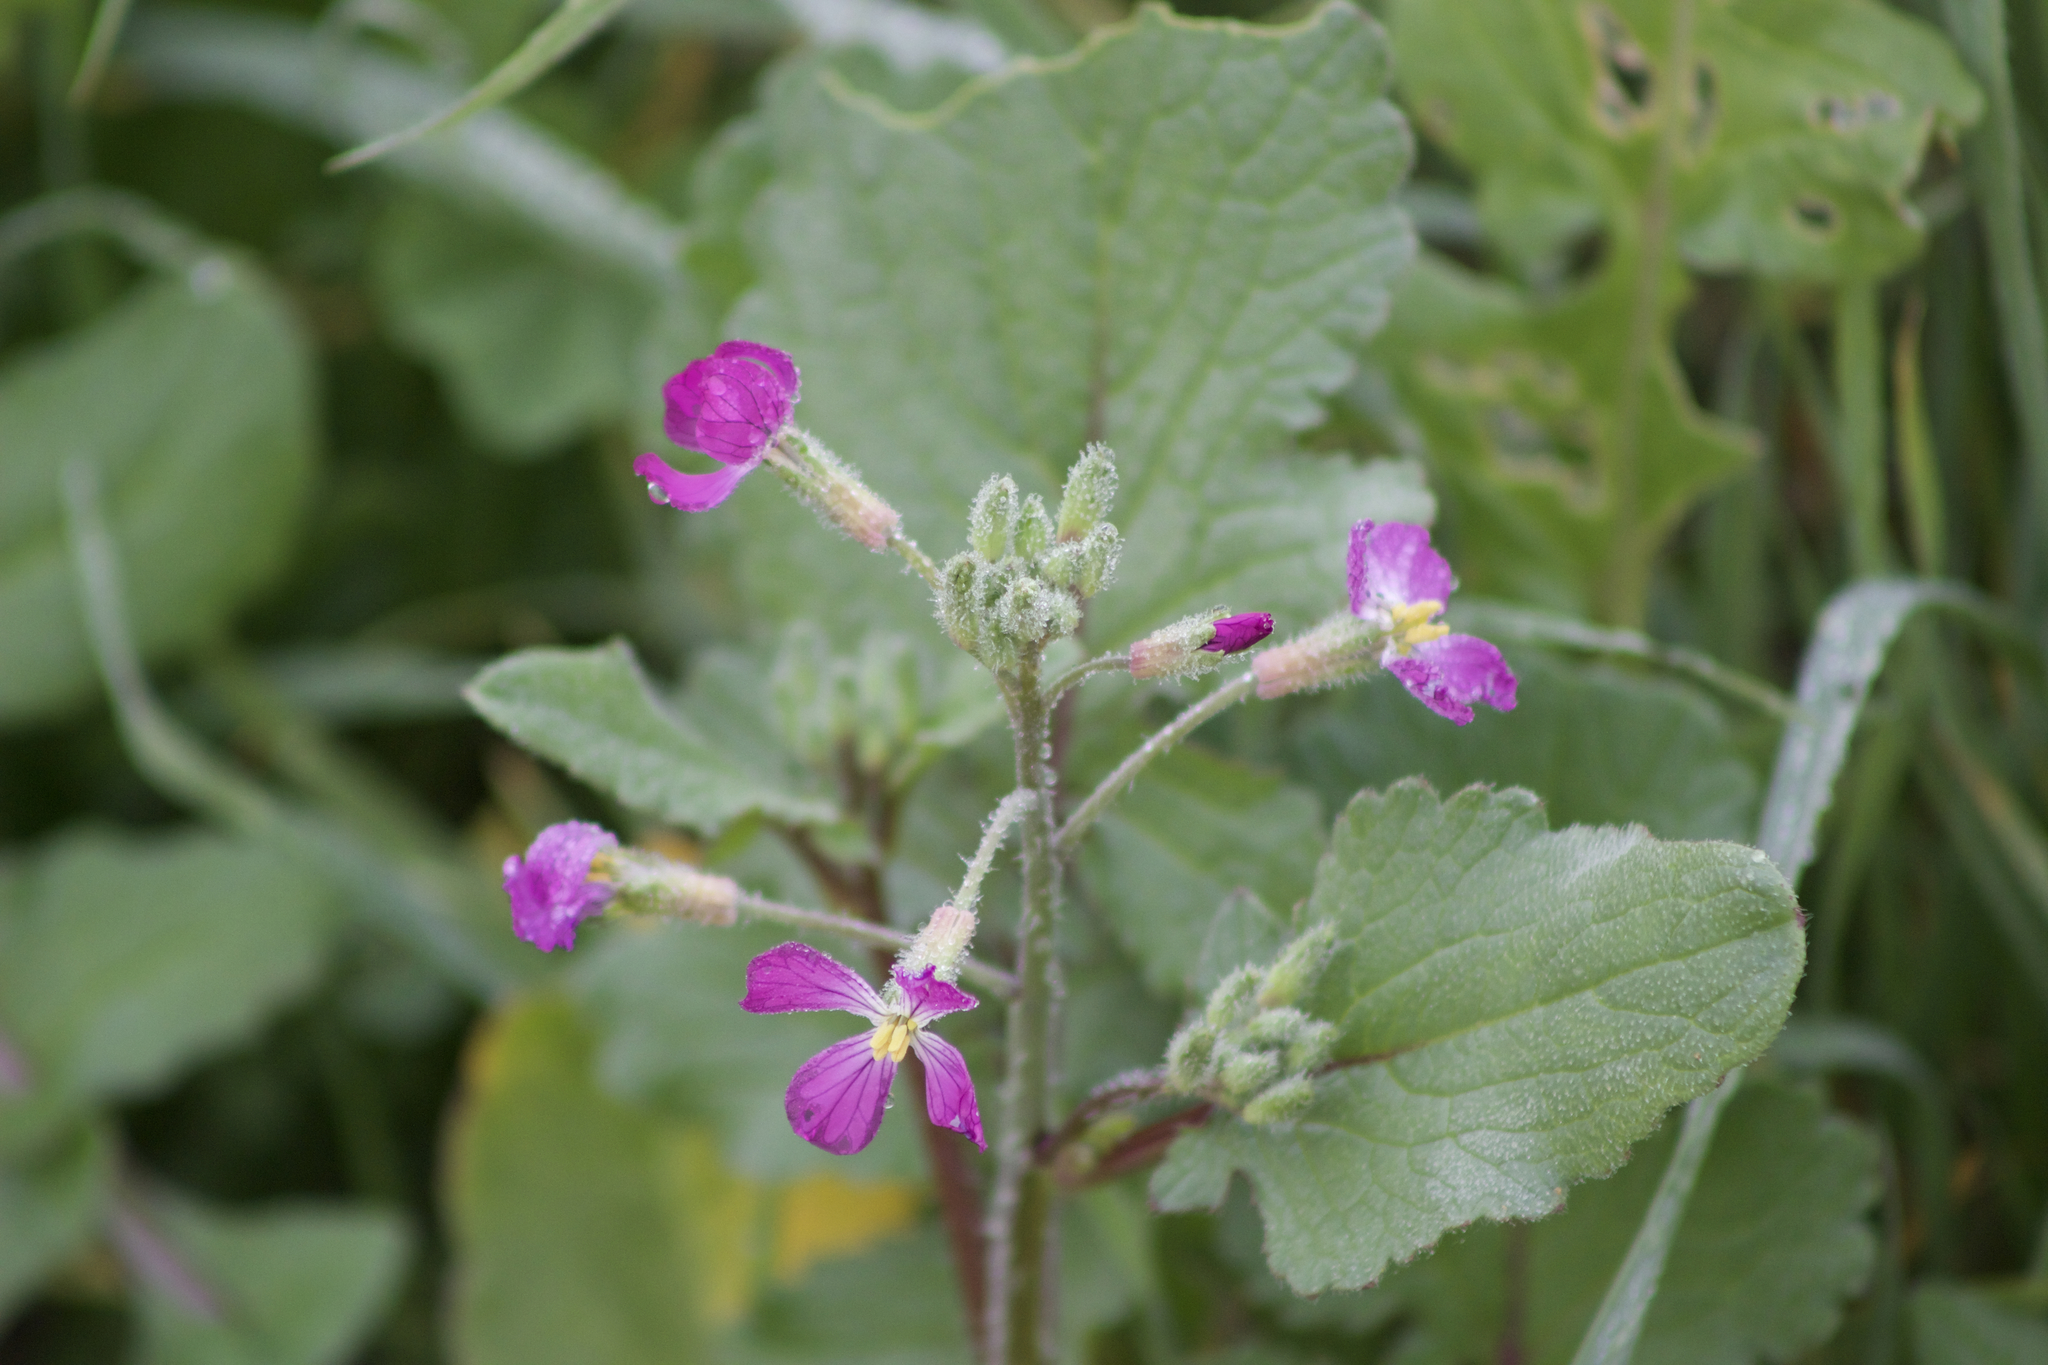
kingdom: Plantae
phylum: Tracheophyta
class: Magnoliopsida
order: Brassicales
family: Brassicaceae
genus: Raphanus
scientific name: Raphanus sativus
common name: Cultivated radish
